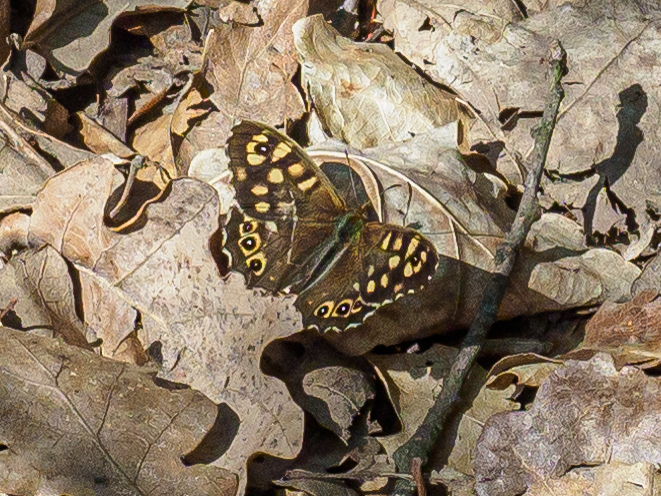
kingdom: Animalia
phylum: Arthropoda
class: Insecta
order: Lepidoptera
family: Nymphalidae
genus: Pararge
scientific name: Pararge aegeria
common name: Speckled wood
